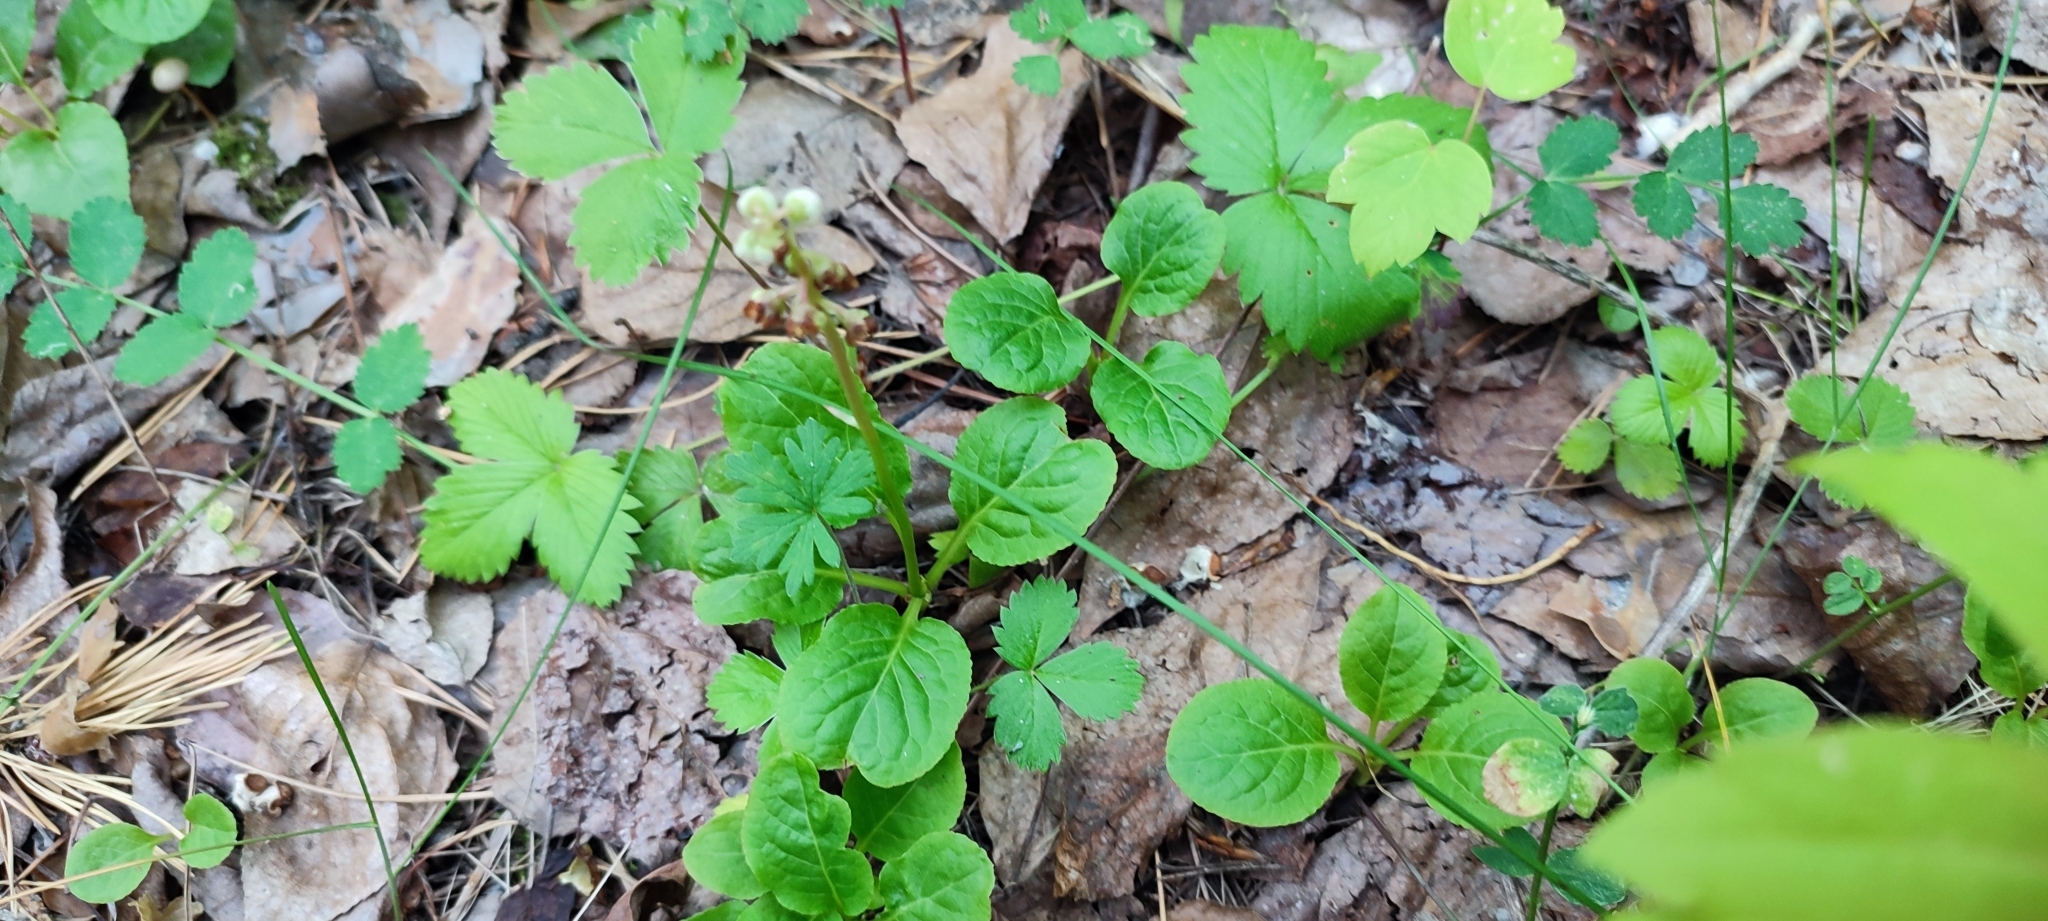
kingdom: Plantae
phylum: Tracheophyta
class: Magnoliopsida
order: Ericales
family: Ericaceae
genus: Pyrola
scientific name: Pyrola minor
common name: Common wintergreen
